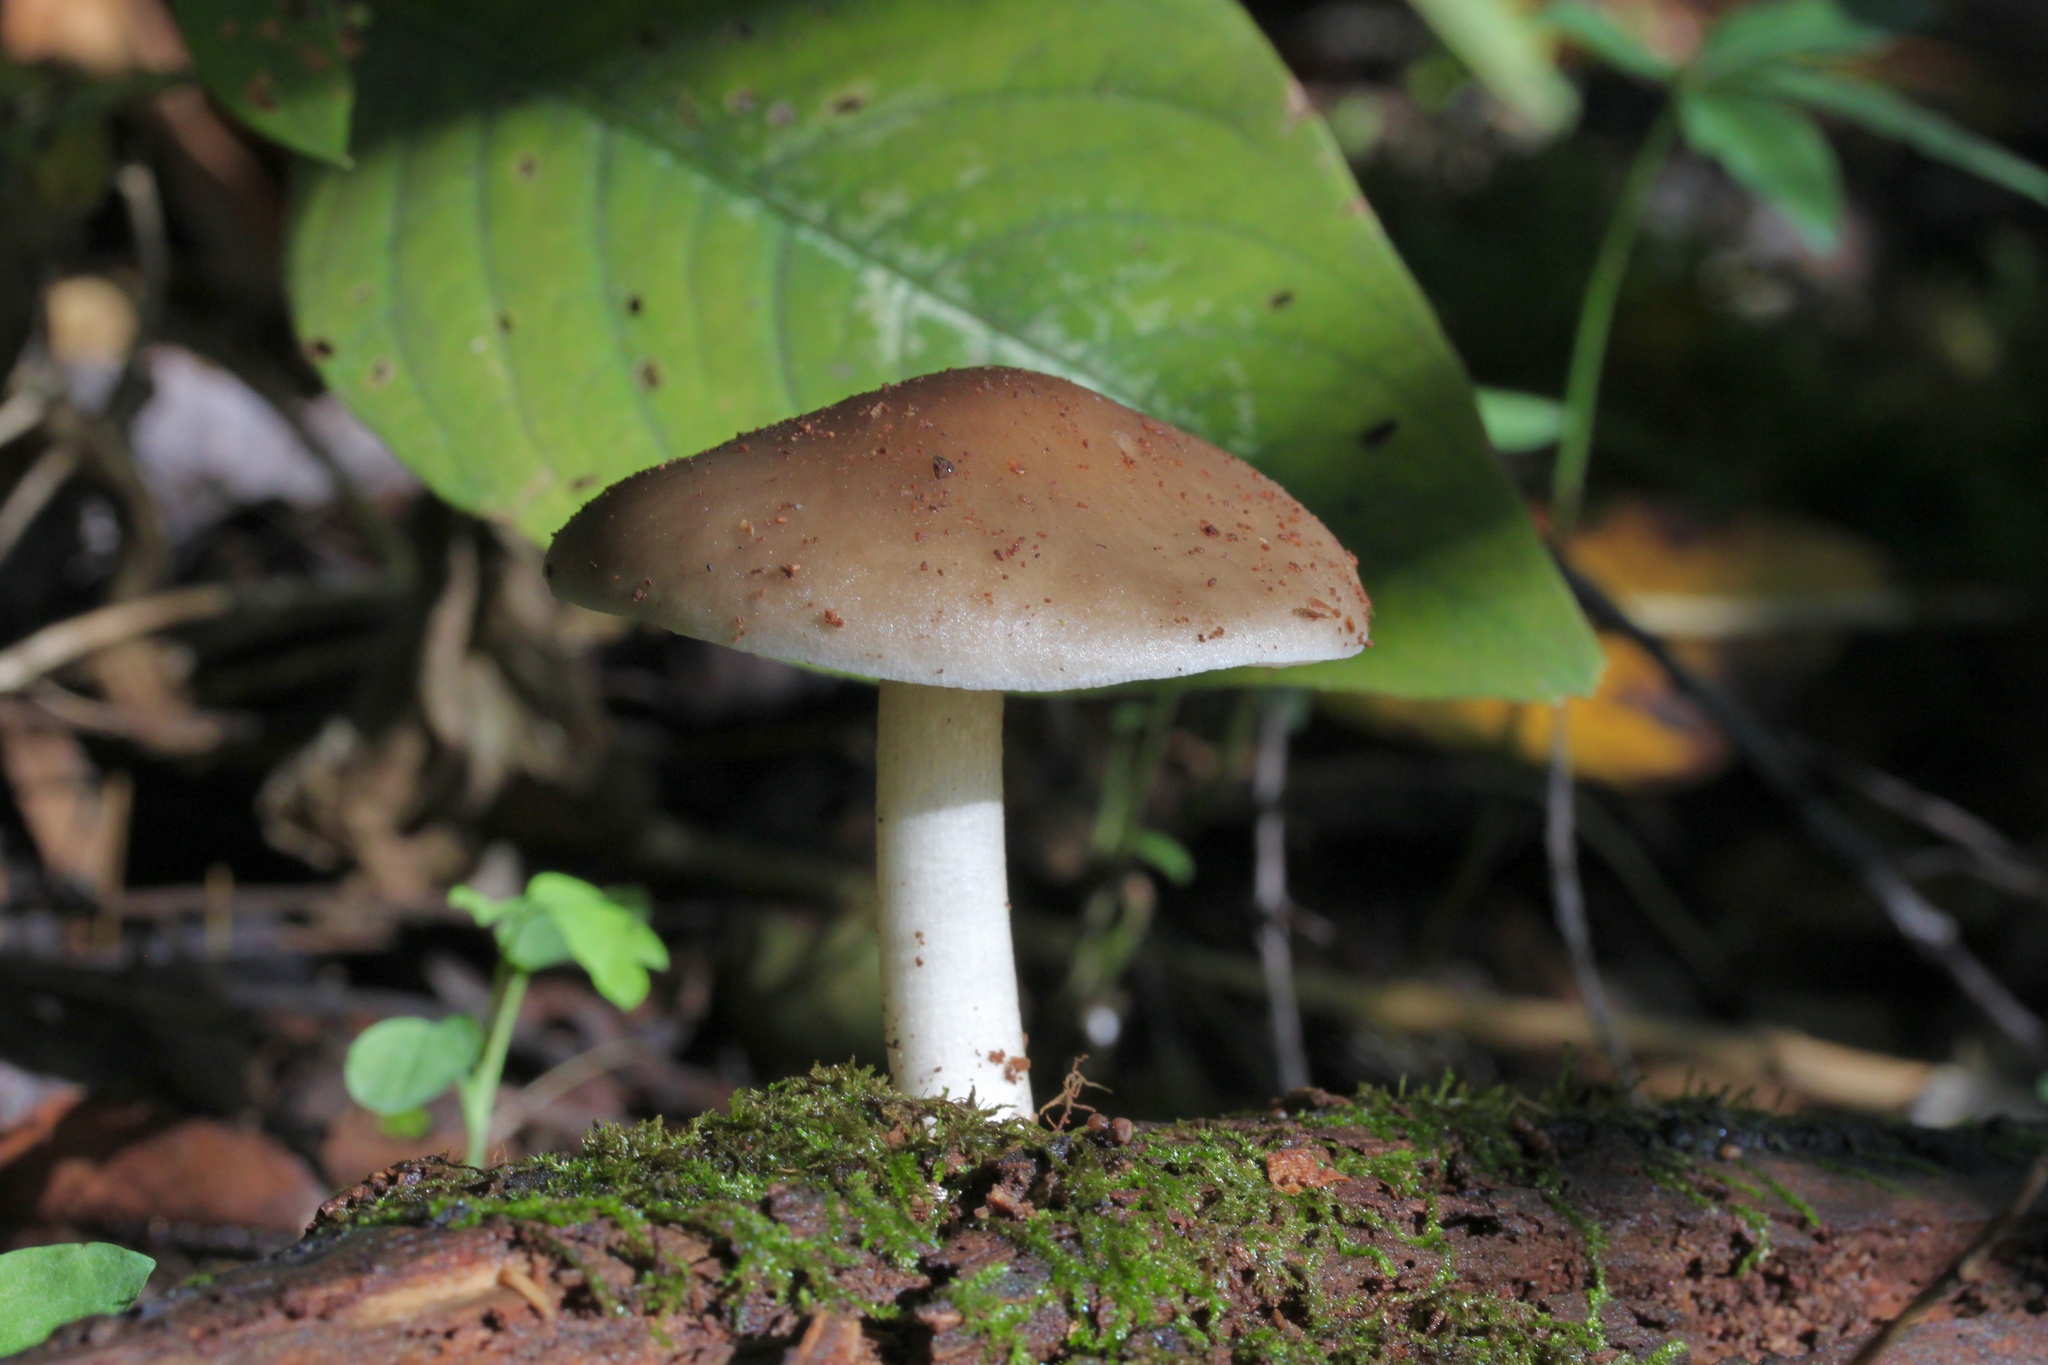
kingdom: Fungi
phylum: Basidiomycota
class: Agaricomycetes
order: Agaricales
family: Pluteaceae
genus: Pluteus
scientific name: Pluteus cervinus
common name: Deer shield
